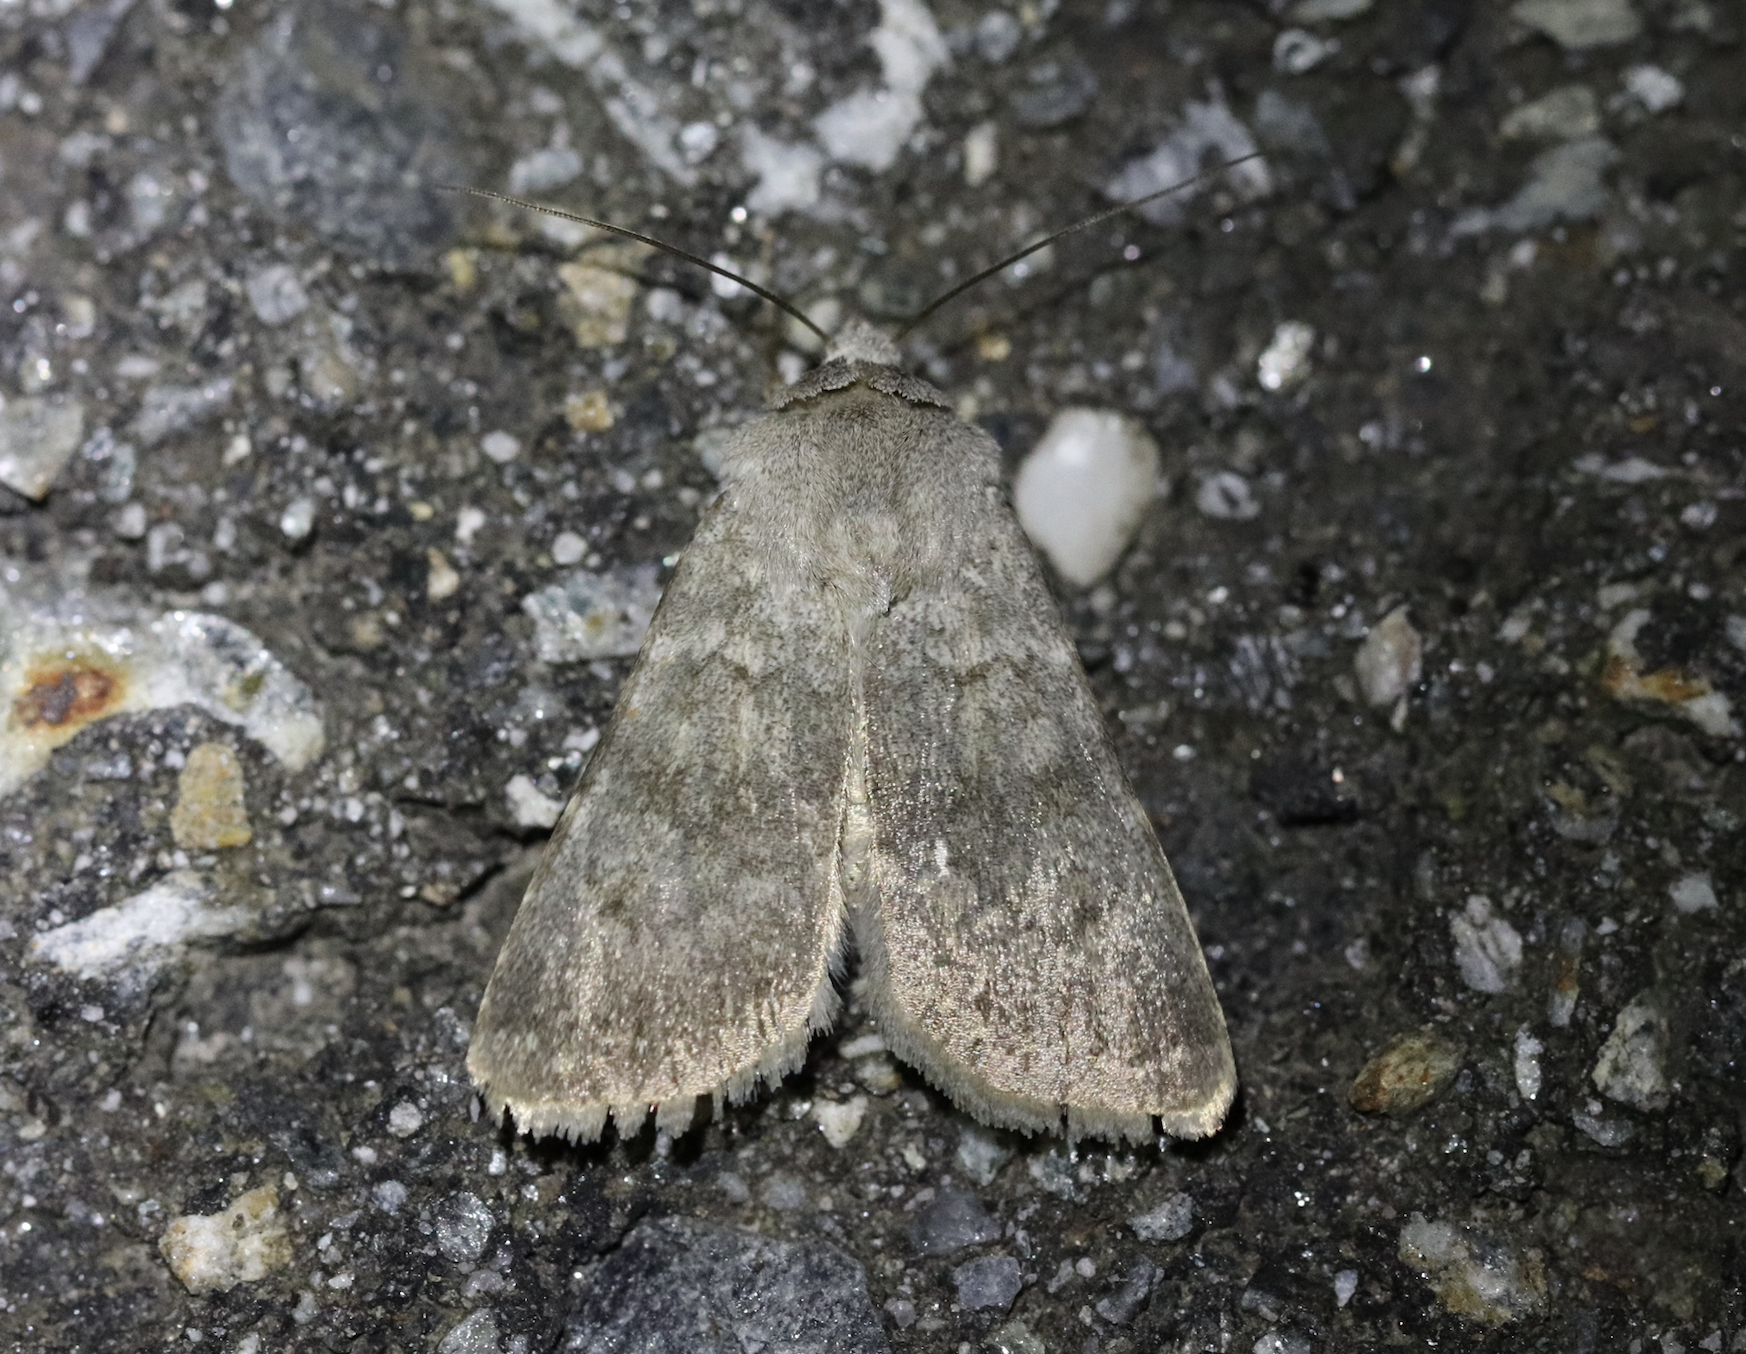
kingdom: Animalia
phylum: Arthropoda
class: Insecta
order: Lepidoptera
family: Noctuidae
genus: Agrotis
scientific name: Agrotis simplonia
